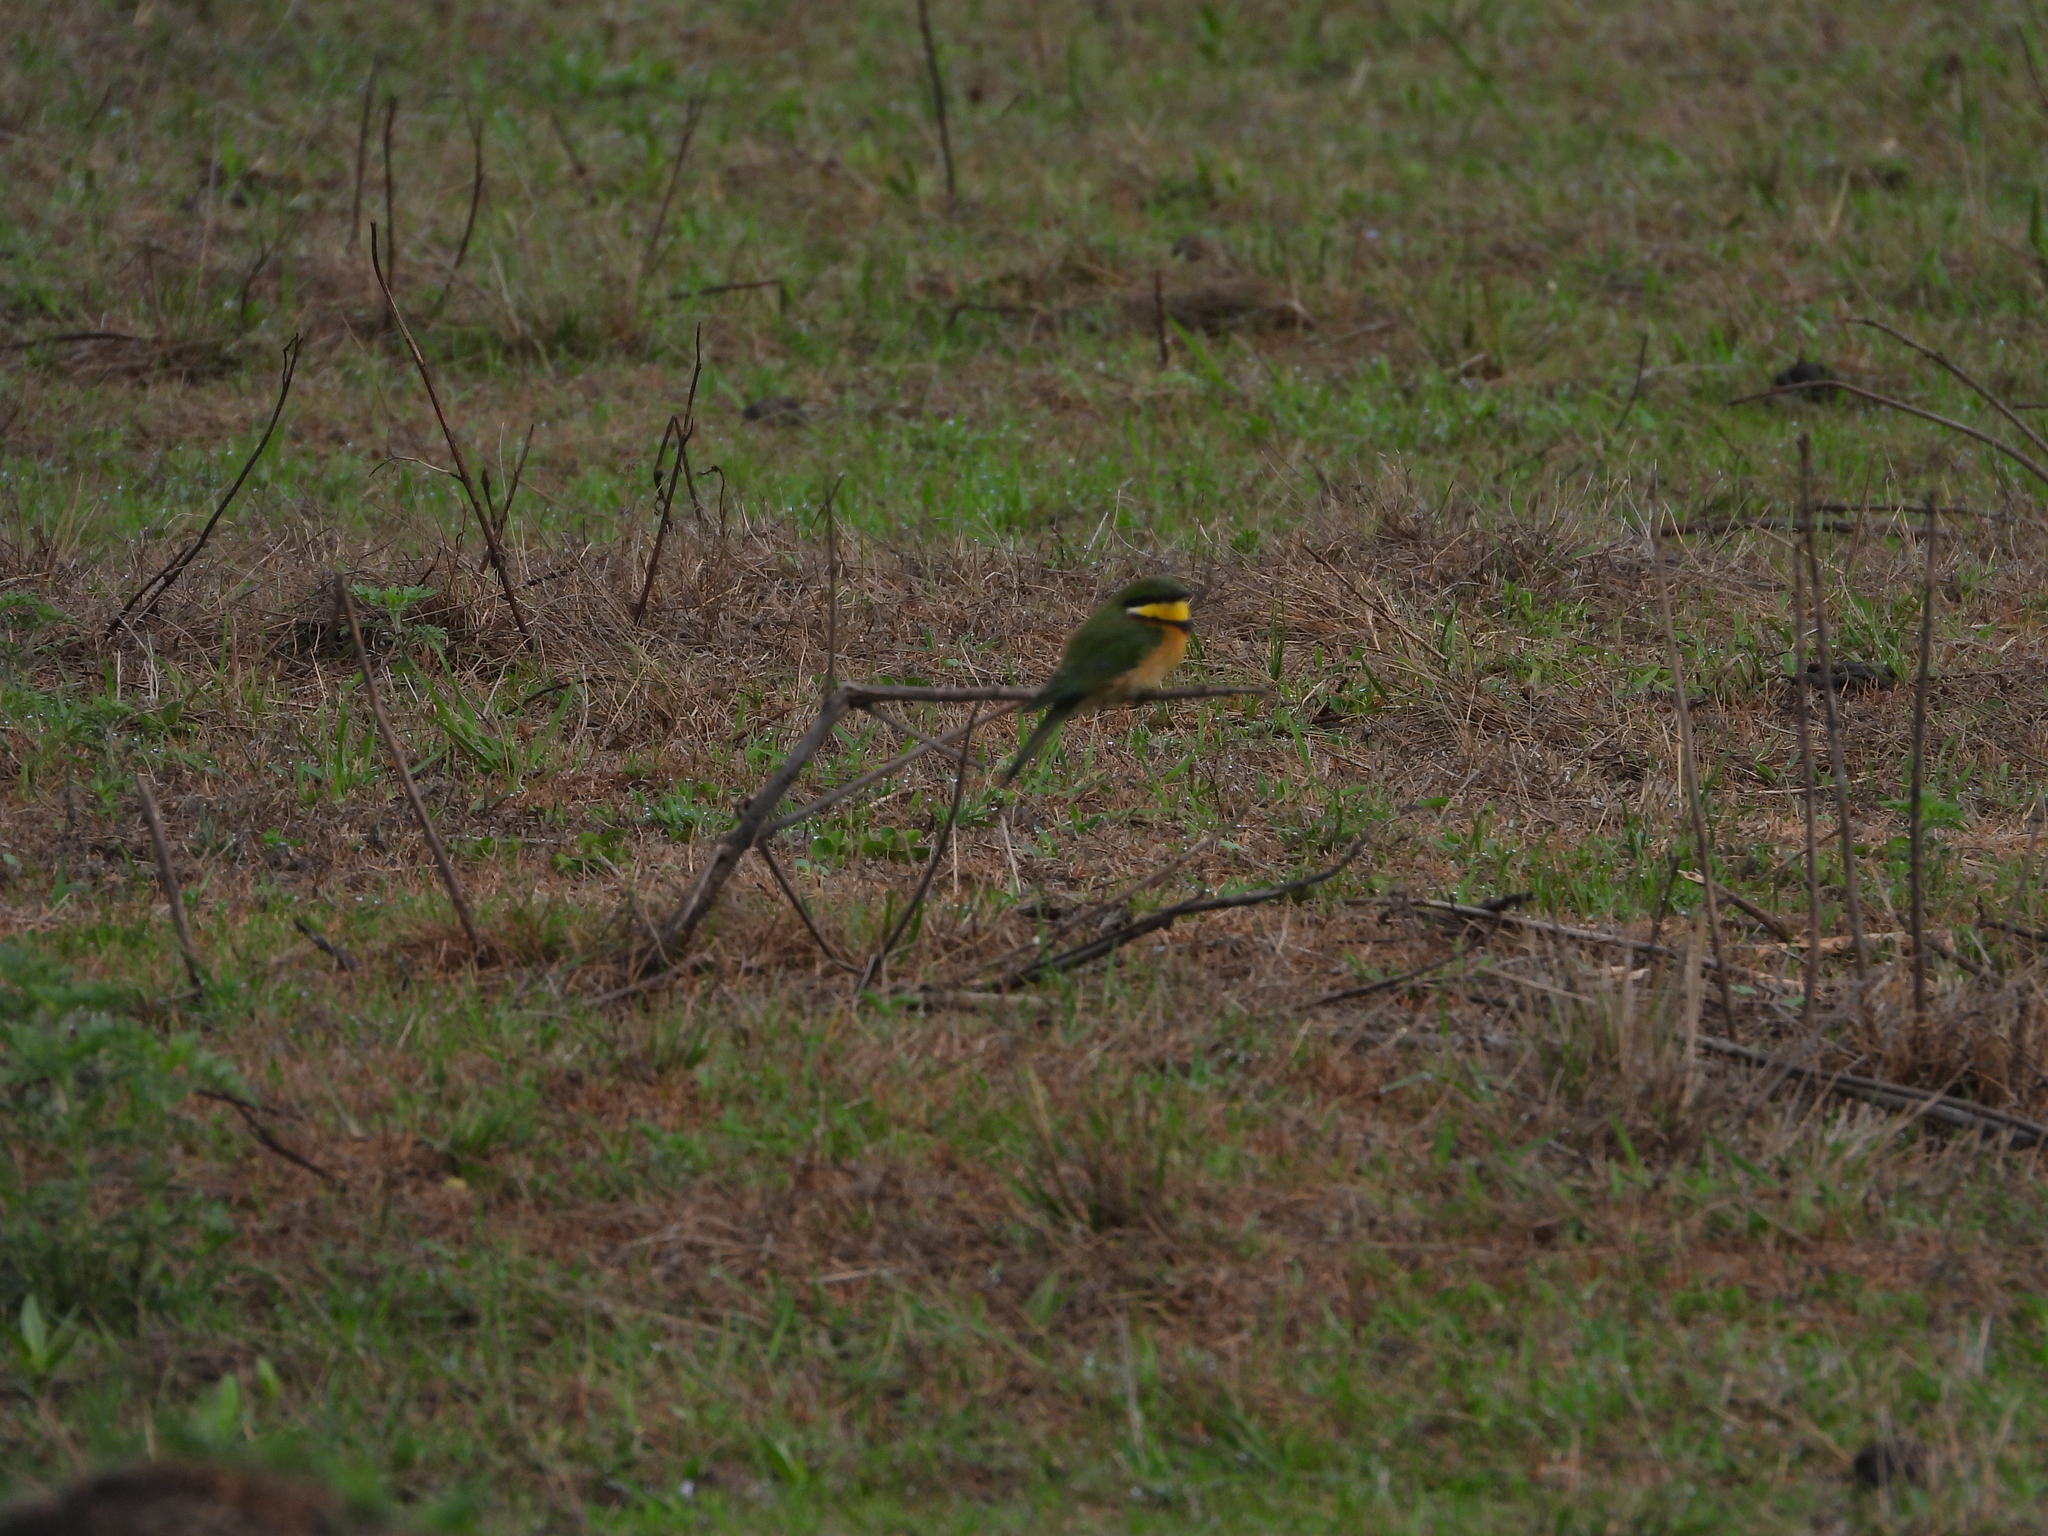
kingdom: Animalia
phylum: Chordata
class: Aves
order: Coraciiformes
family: Meropidae
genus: Merops
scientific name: Merops variegatus
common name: Blue-breasted bee-eater
